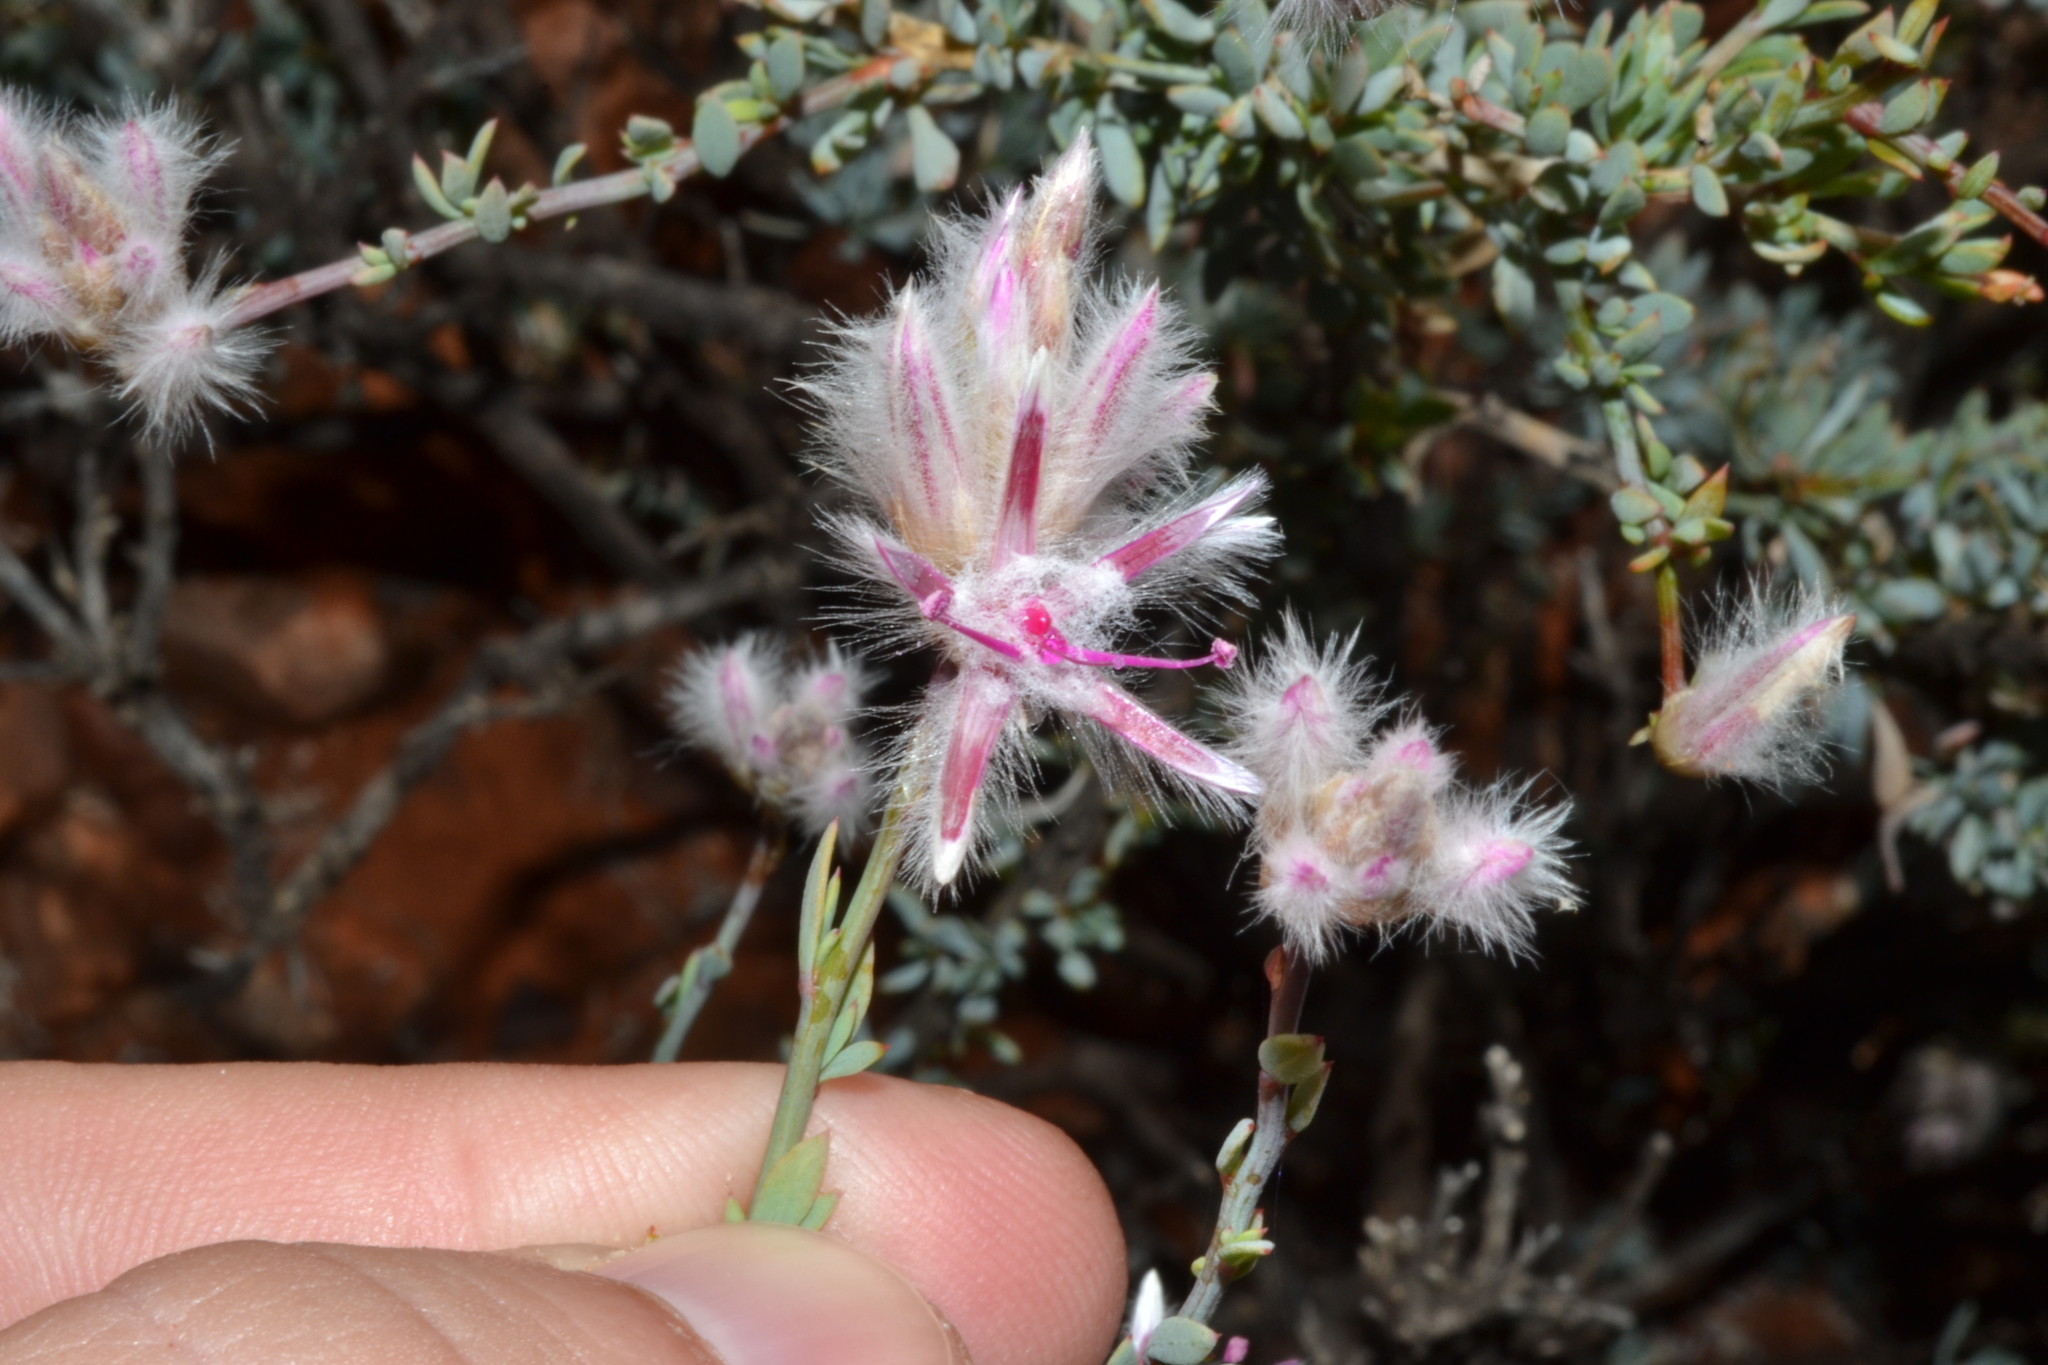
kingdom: Plantae
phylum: Tracheophyta
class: Magnoliopsida
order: Caryophyllales
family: Amaranthaceae
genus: Ptilotus
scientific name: Ptilotus whitei
